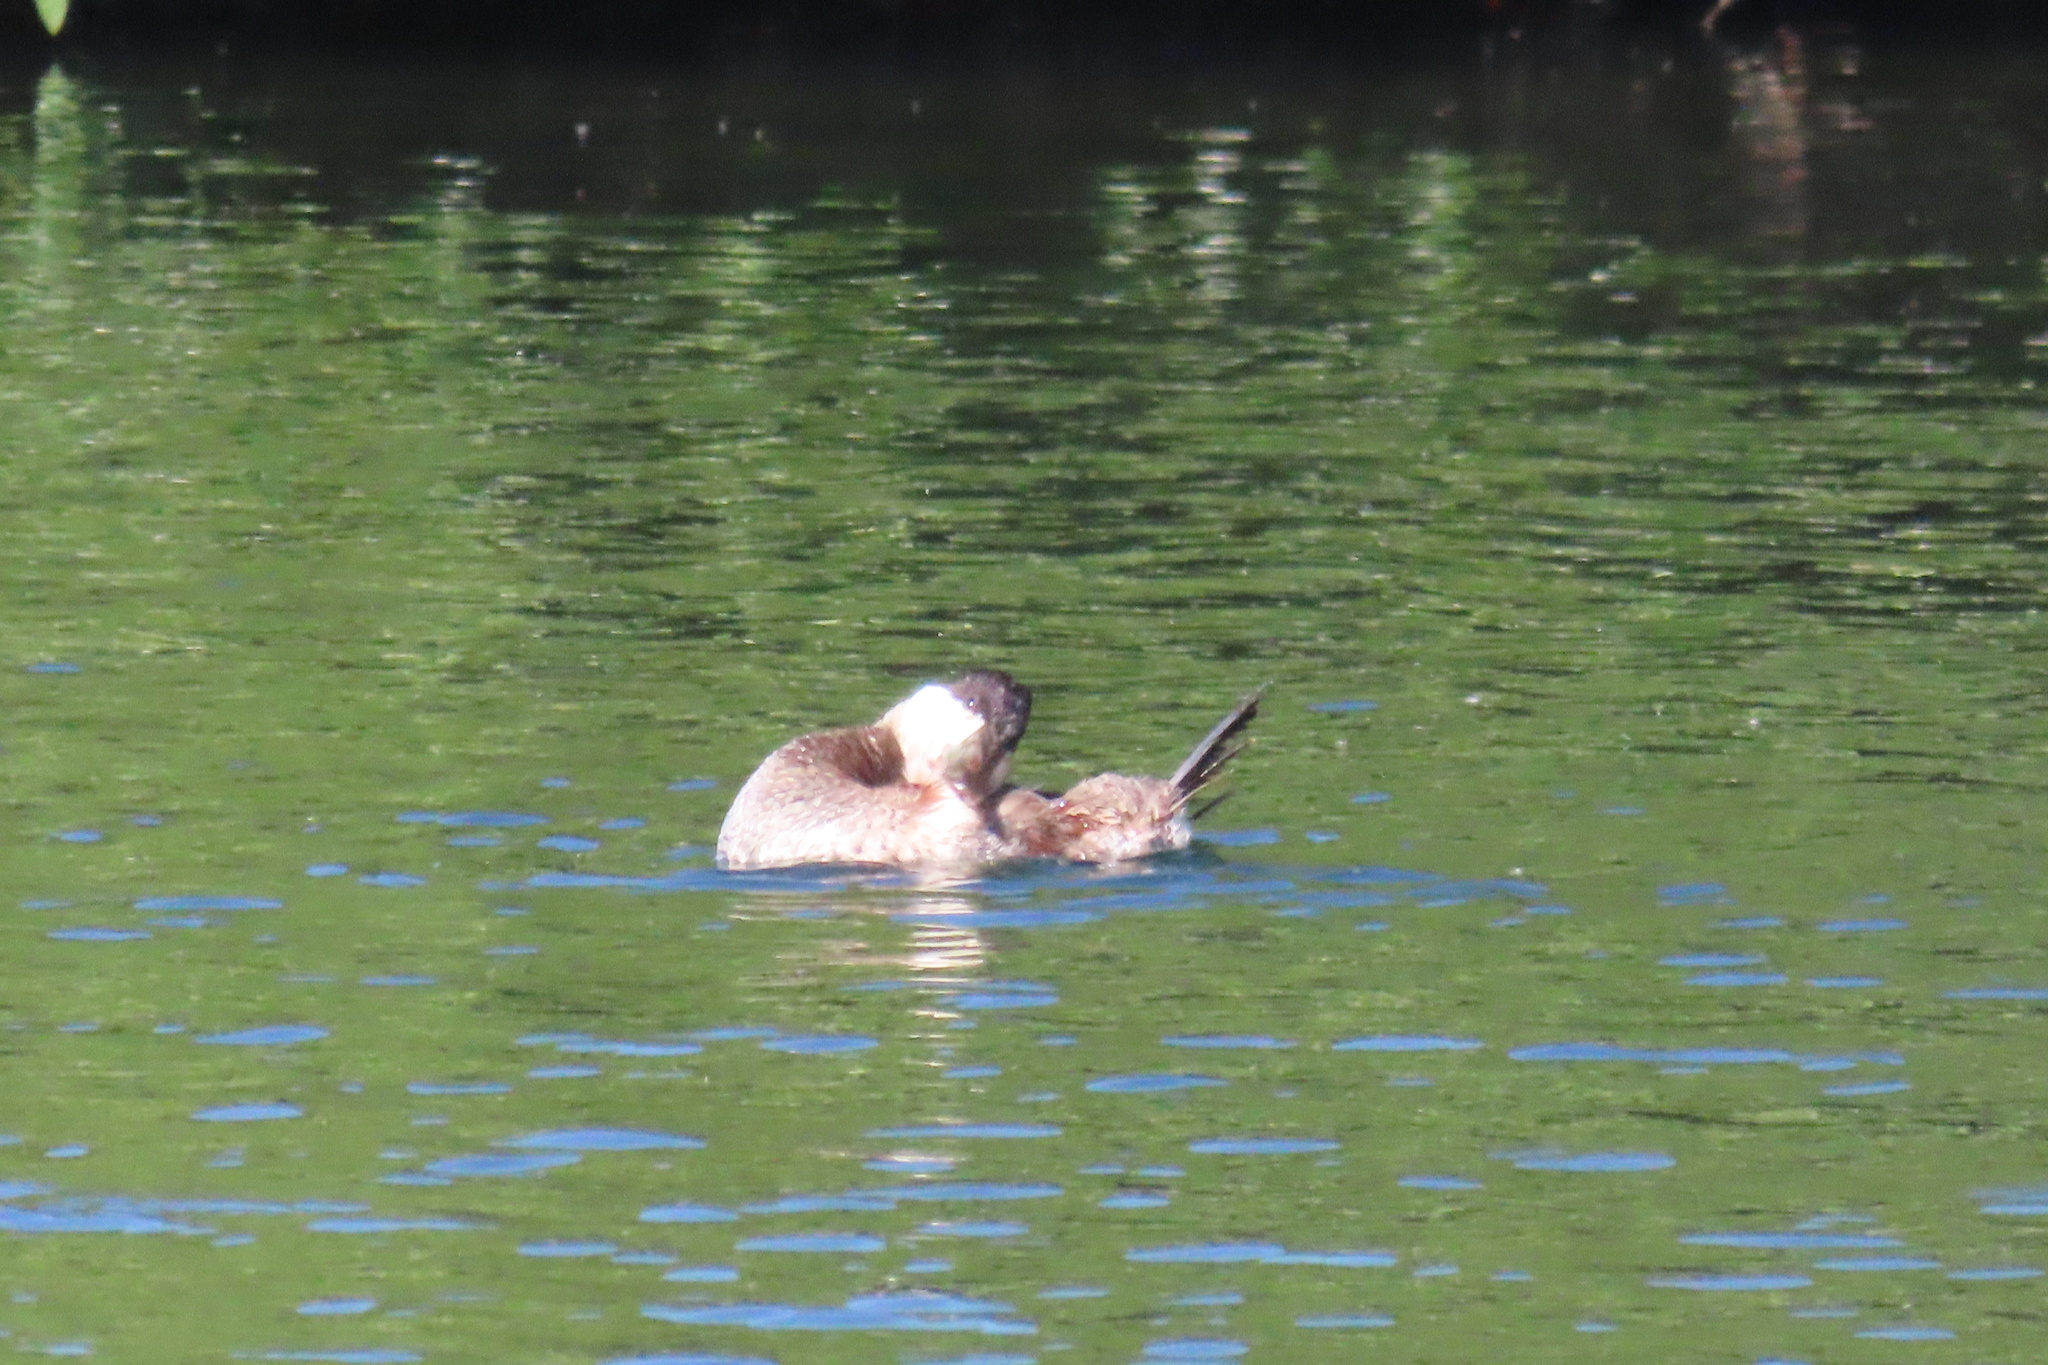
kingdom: Animalia
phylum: Chordata
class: Aves
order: Anseriformes
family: Anatidae
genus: Oxyura
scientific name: Oxyura jamaicensis
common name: Ruddy duck
